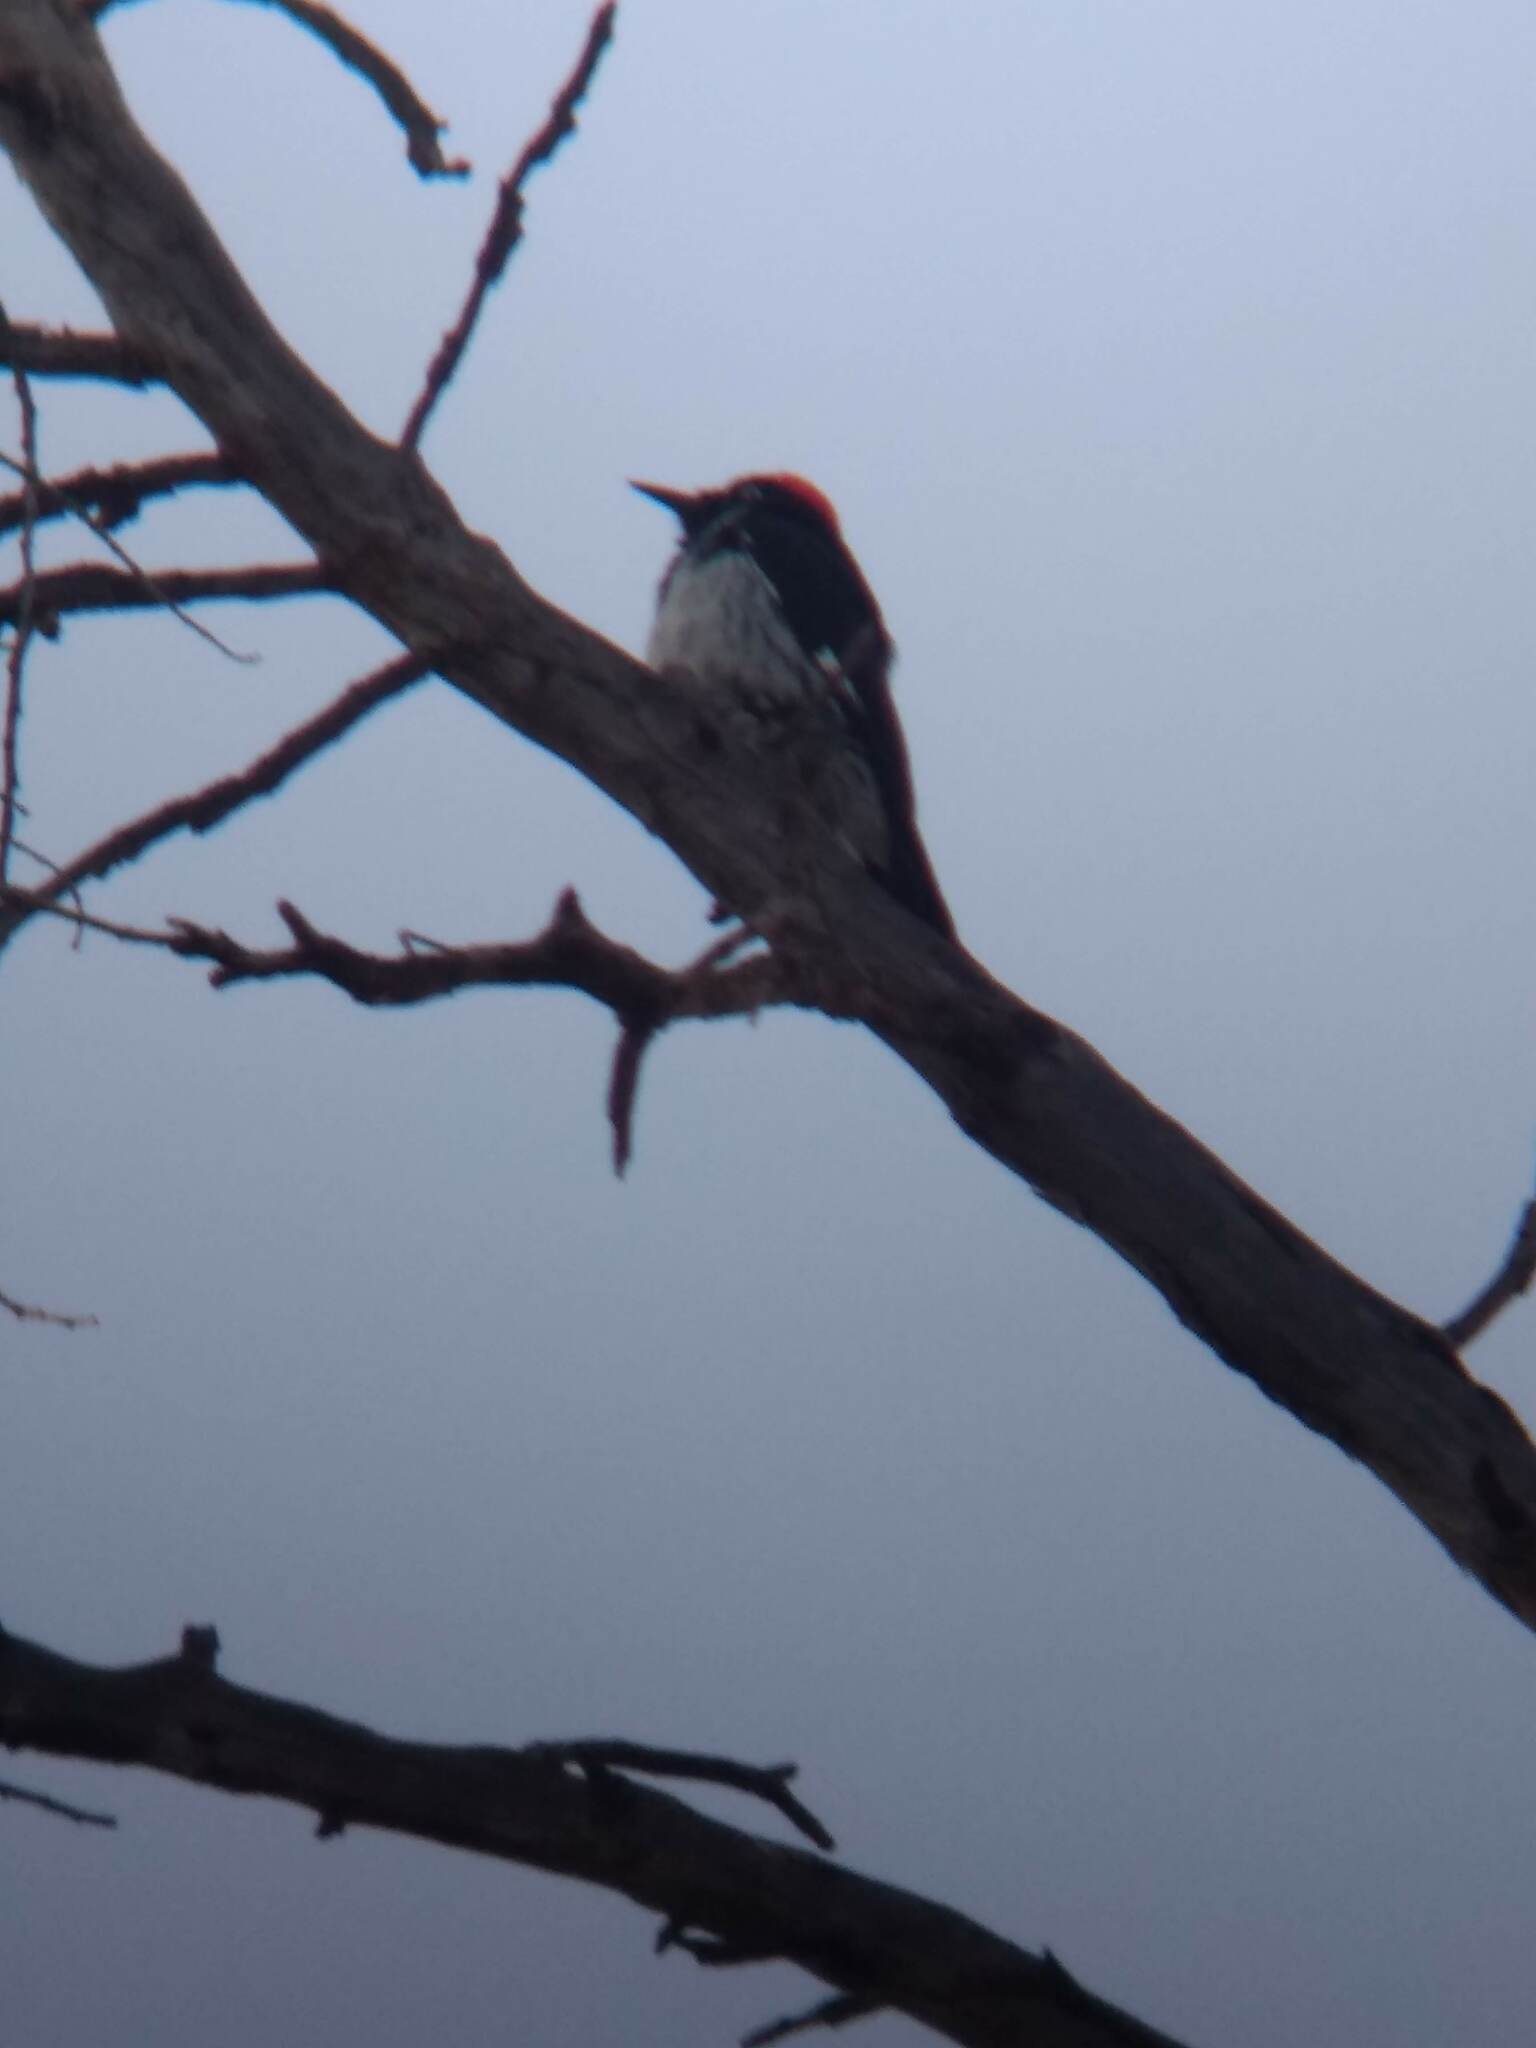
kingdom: Animalia
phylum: Chordata
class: Aves
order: Piciformes
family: Picidae
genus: Melanerpes
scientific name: Melanerpes formicivorus
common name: Acorn woodpecker
